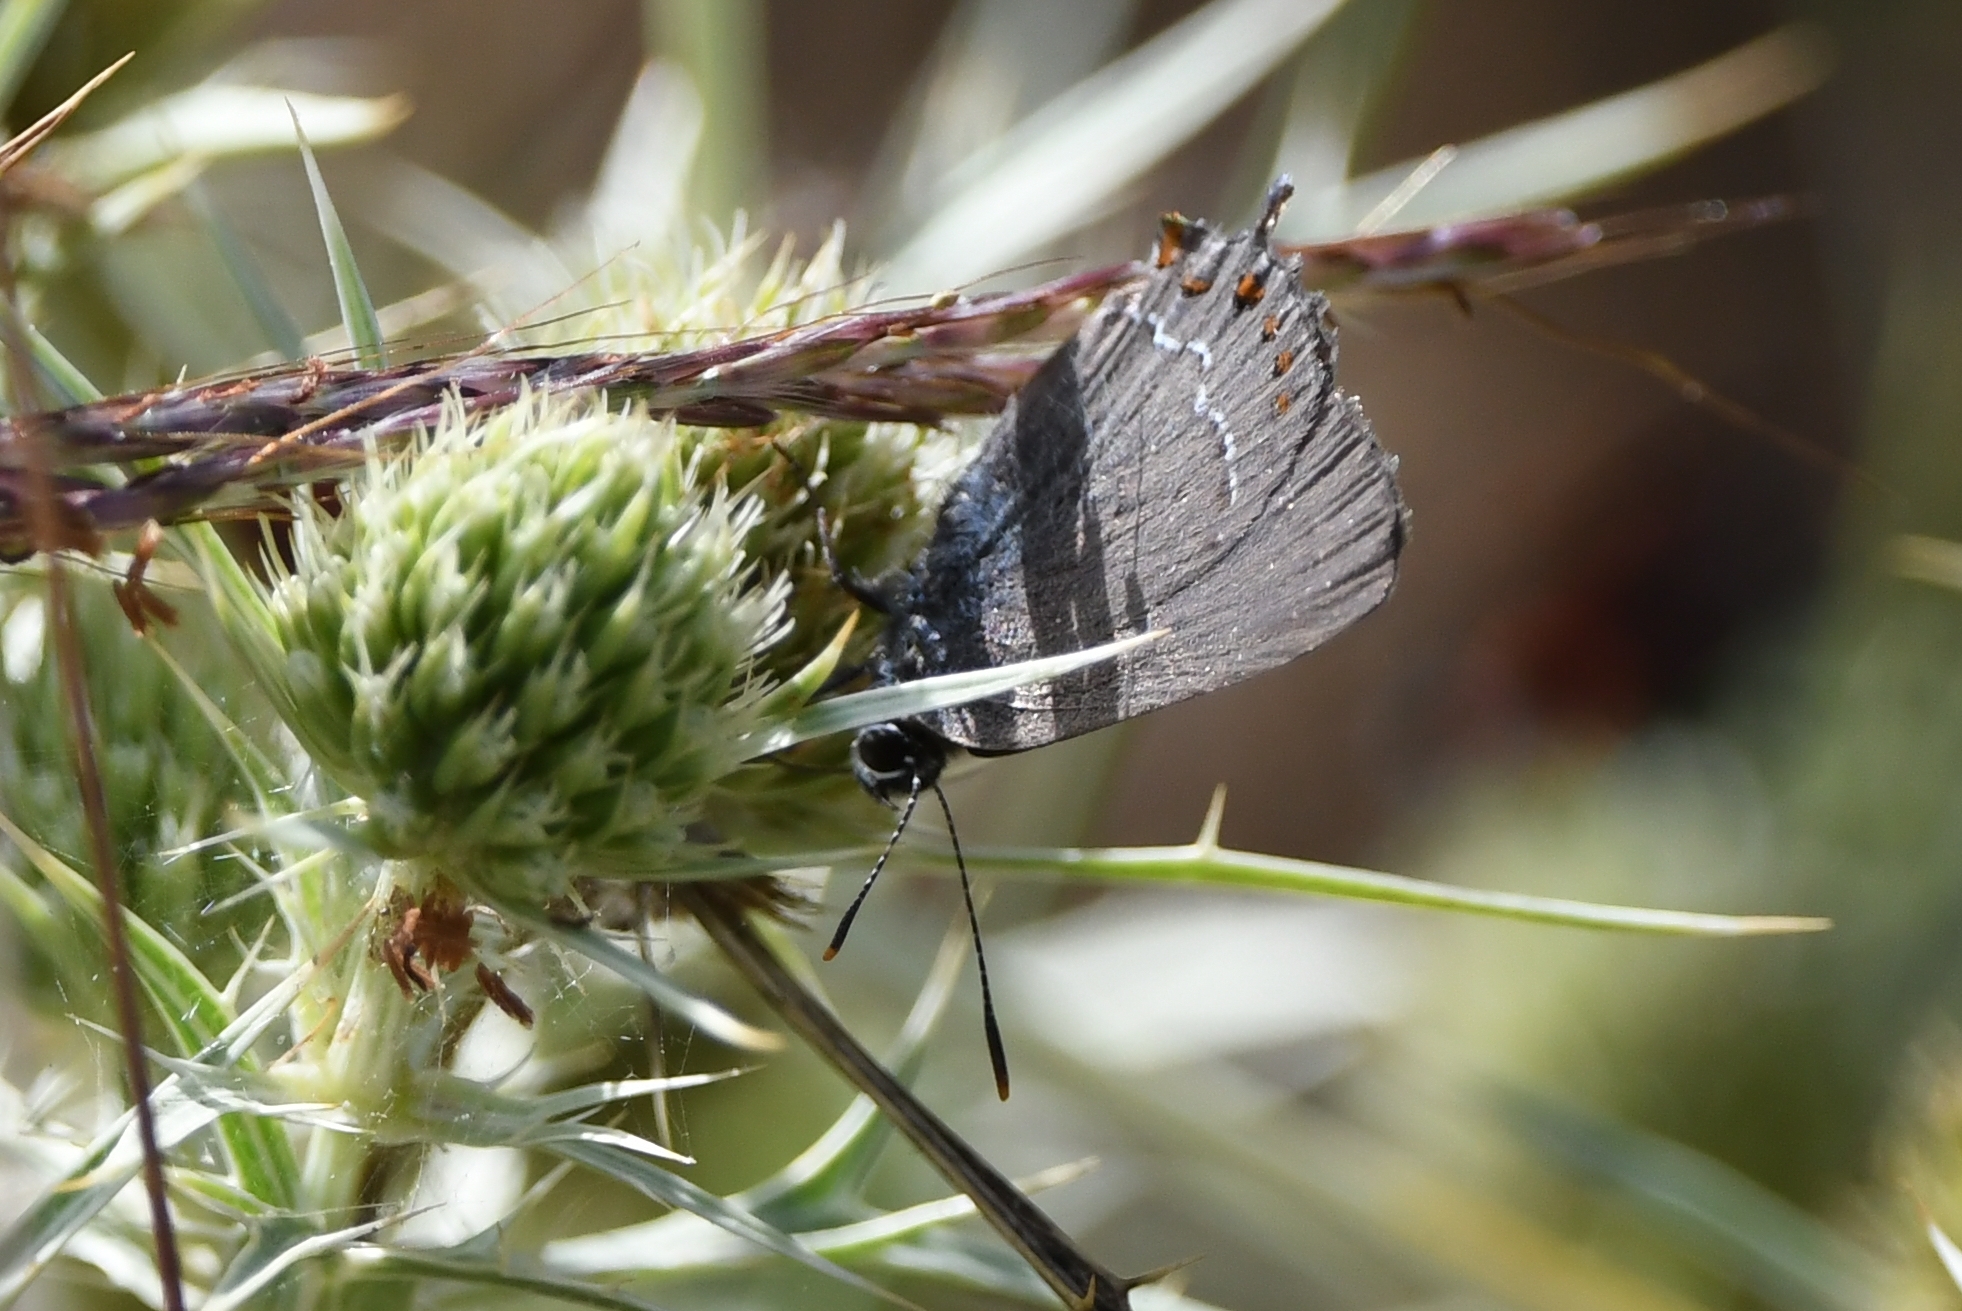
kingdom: Animalia
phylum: Arthropoda
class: Insecta
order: Lepidoptera
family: Lycaenidae
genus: Fixsenia
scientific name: Fixsenia esculi
